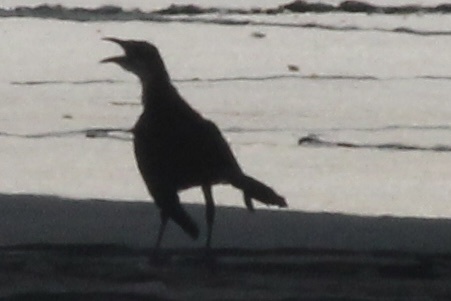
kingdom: Animalia
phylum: Chordata
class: Aves
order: Passeriformes
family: Icteridae
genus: Quiscalus
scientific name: Quiscalus mexicanus
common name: Great-tailed grackle
